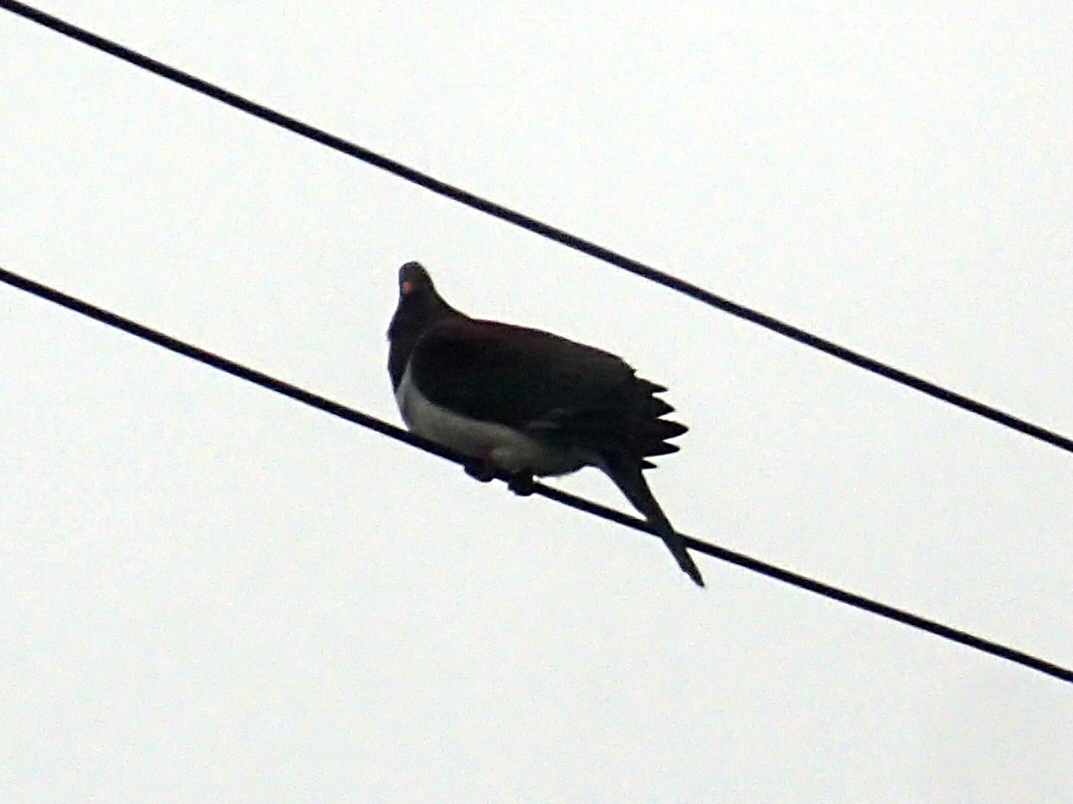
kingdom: Animalia
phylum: Chordata
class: Aves
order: Columbiformes
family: Columbidae
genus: Hemiphaga
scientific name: Hemiphaga novaeseelandiae
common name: New zealand pigeon
